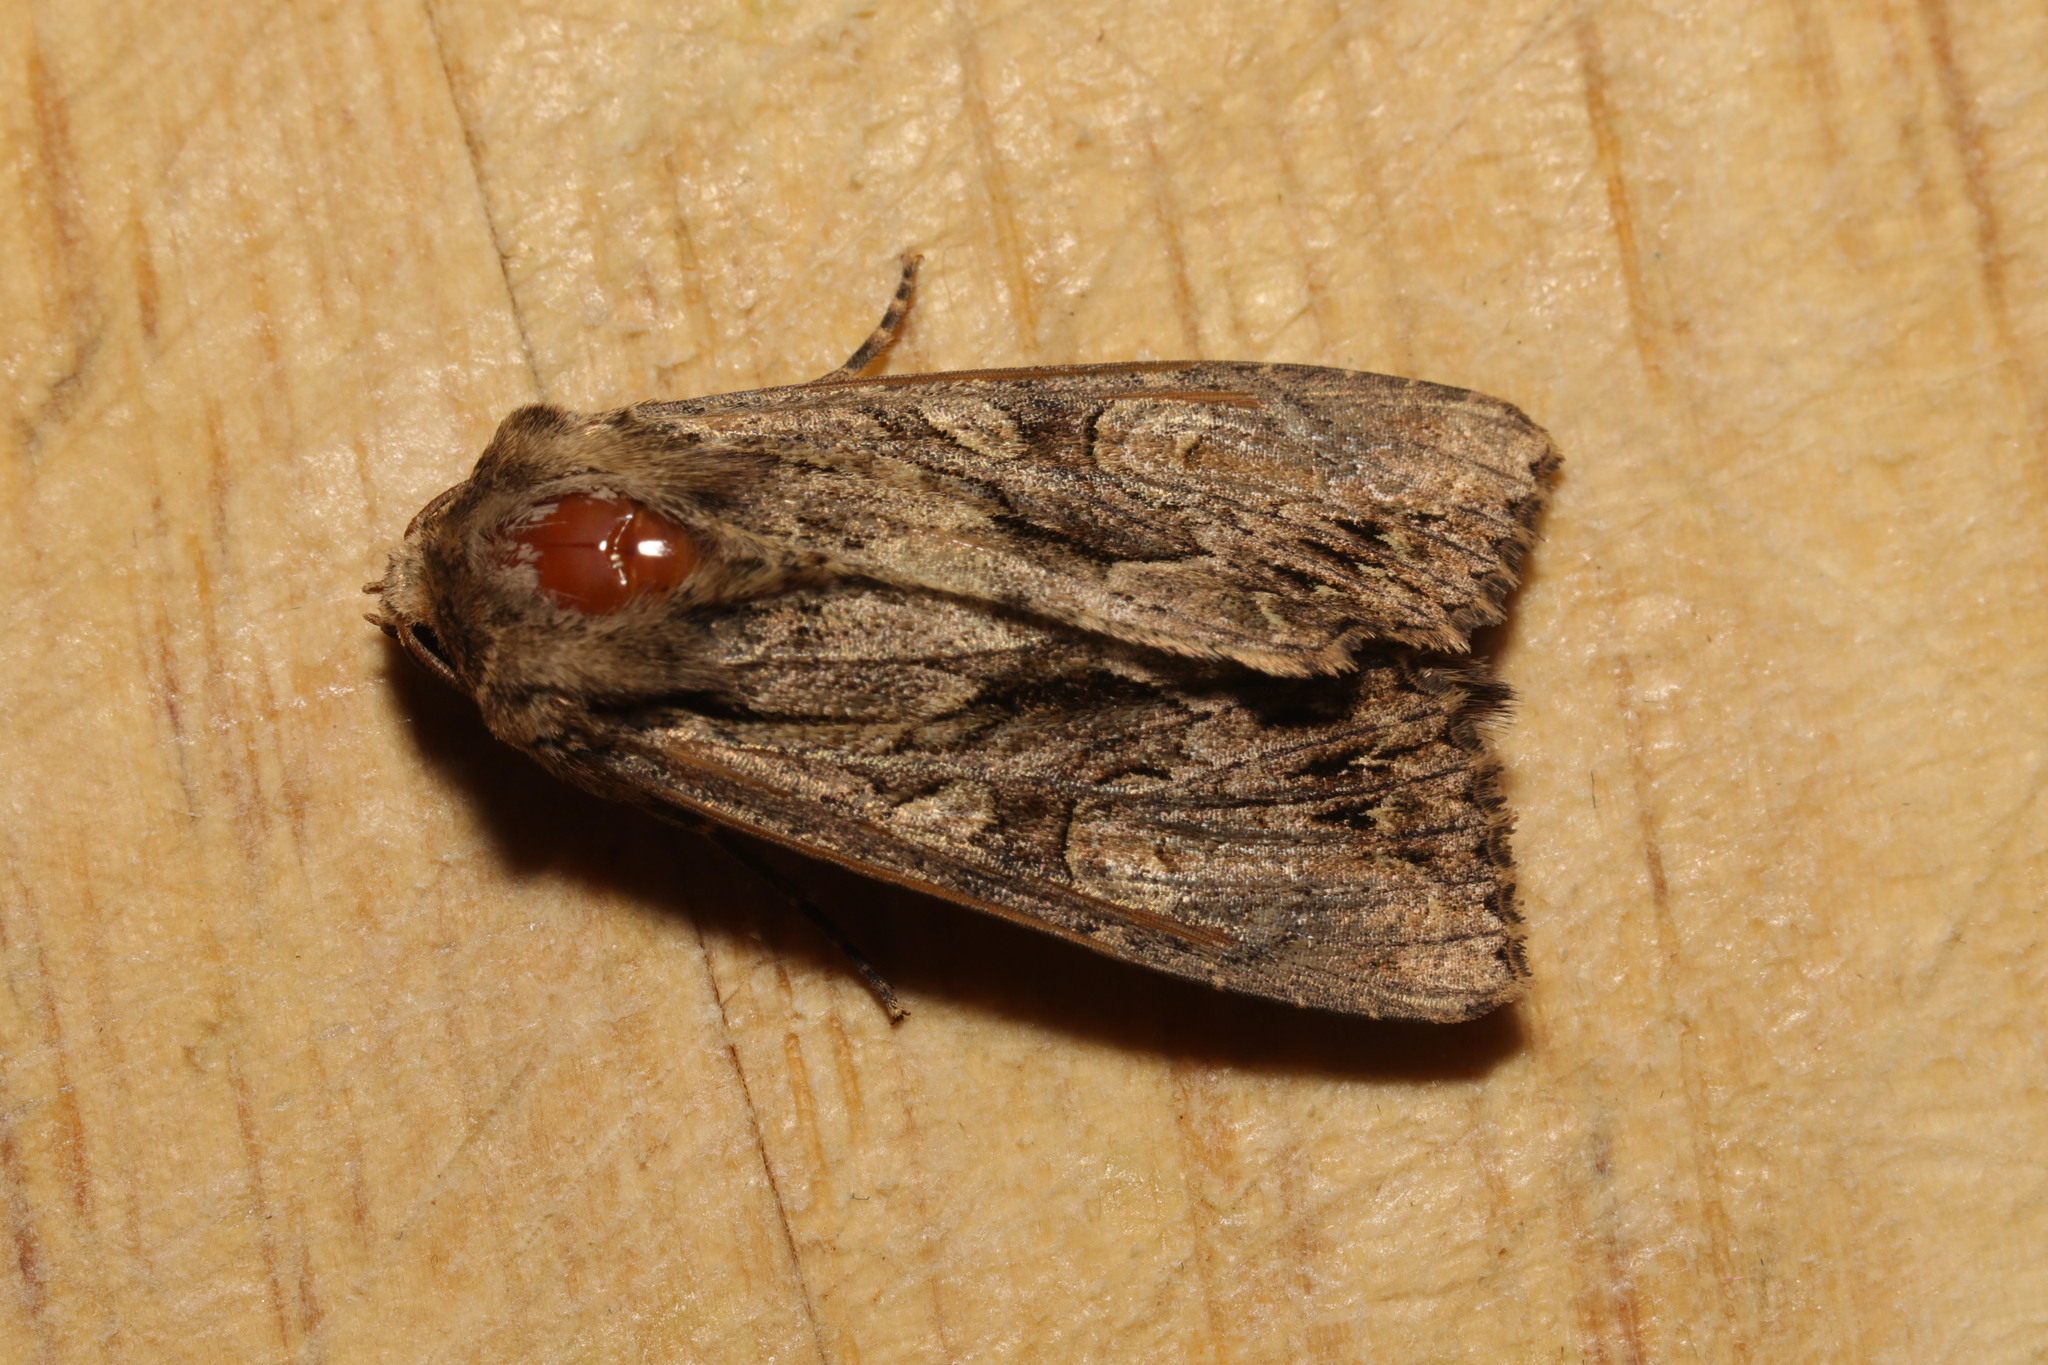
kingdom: Animalia
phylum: Arthropoda
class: Insecta
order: Lepidoptera
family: Noctuidae
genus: Apamea
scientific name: Apamea monoglypha
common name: Dark arches
